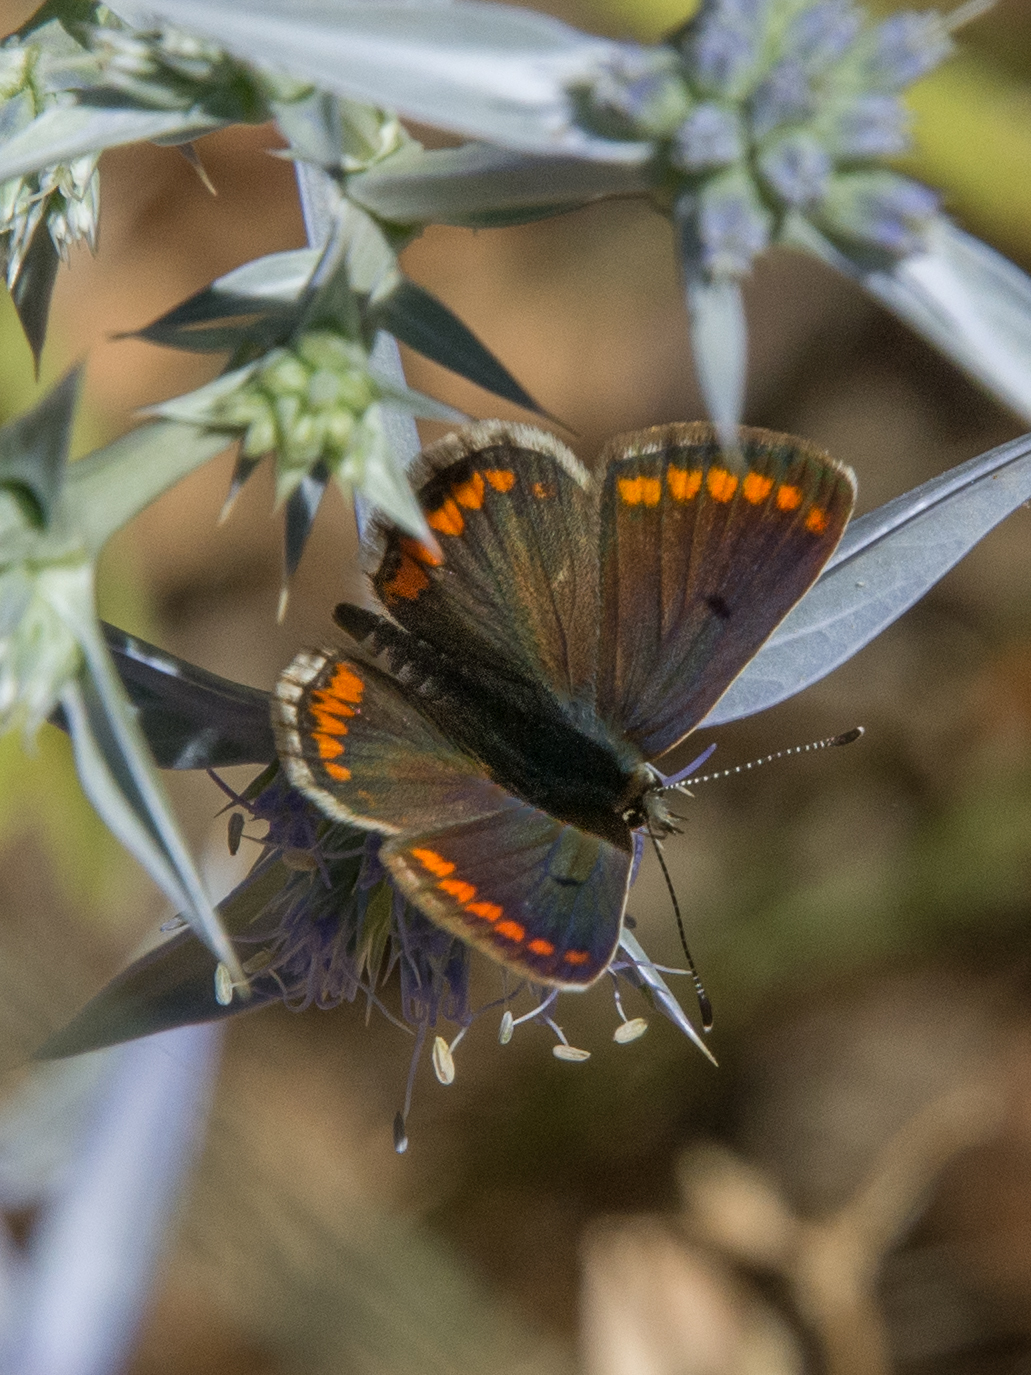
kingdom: Animalia
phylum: Arthropoda
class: Insecta
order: Lepidoptera
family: Lycaenidae
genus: Aricia
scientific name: Aricia agestis
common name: Brown argus
